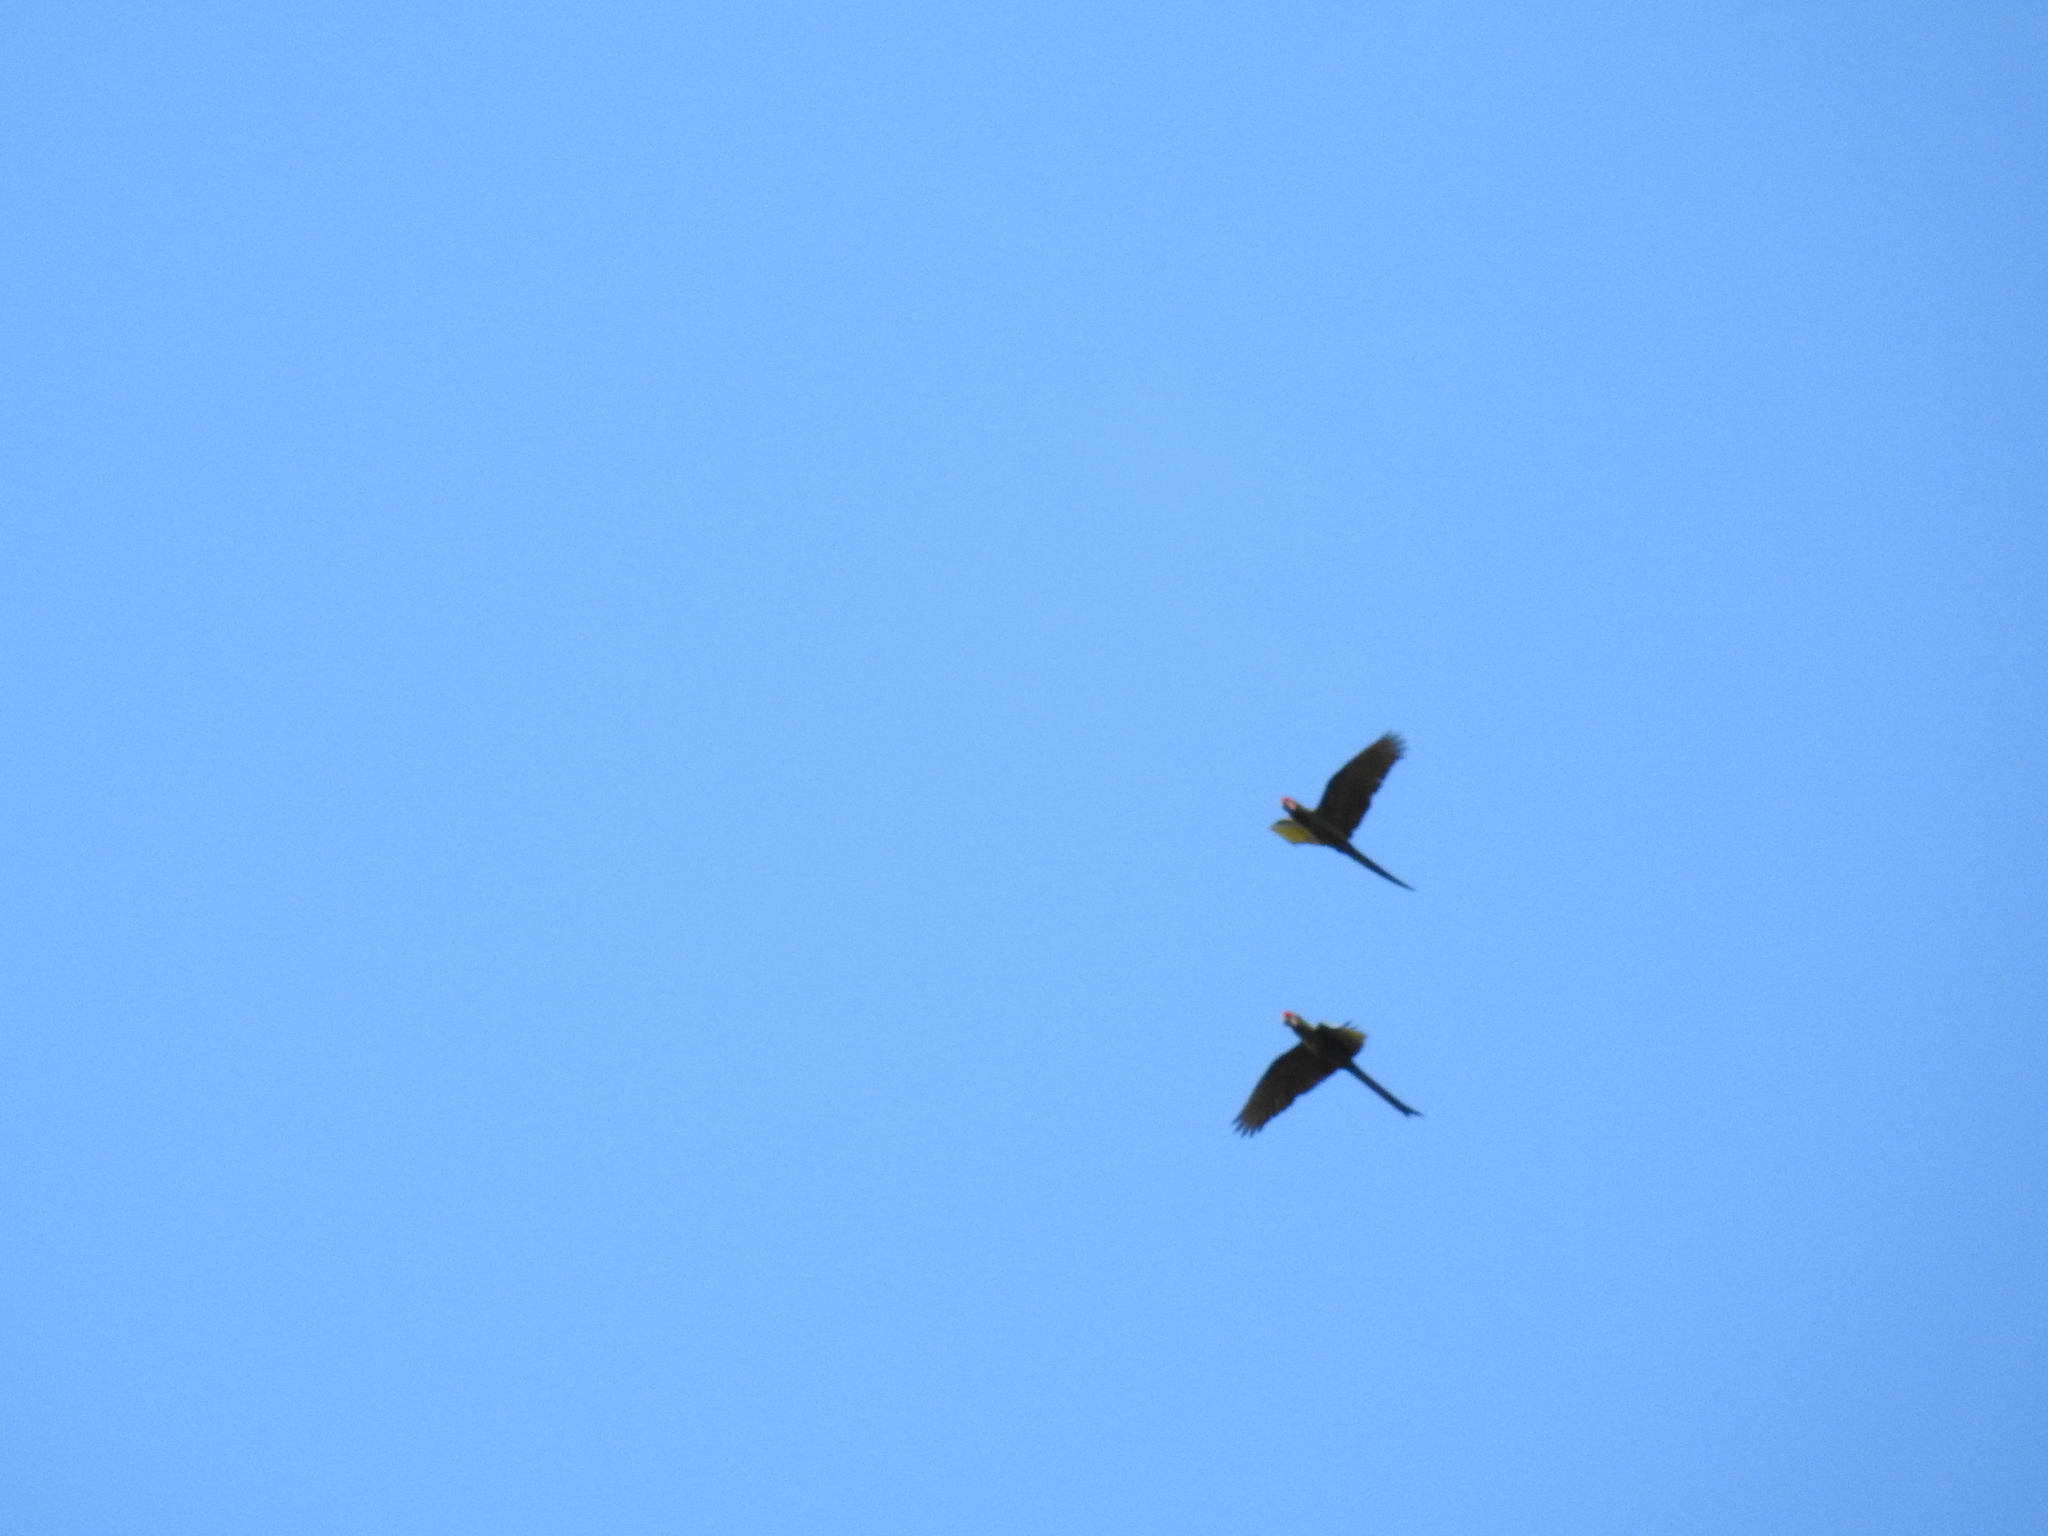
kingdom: Animalia
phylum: Chordata
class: Aves
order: Psittaciformes
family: Psittacidae
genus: Ara
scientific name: Ara militaris
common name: Military macaw
